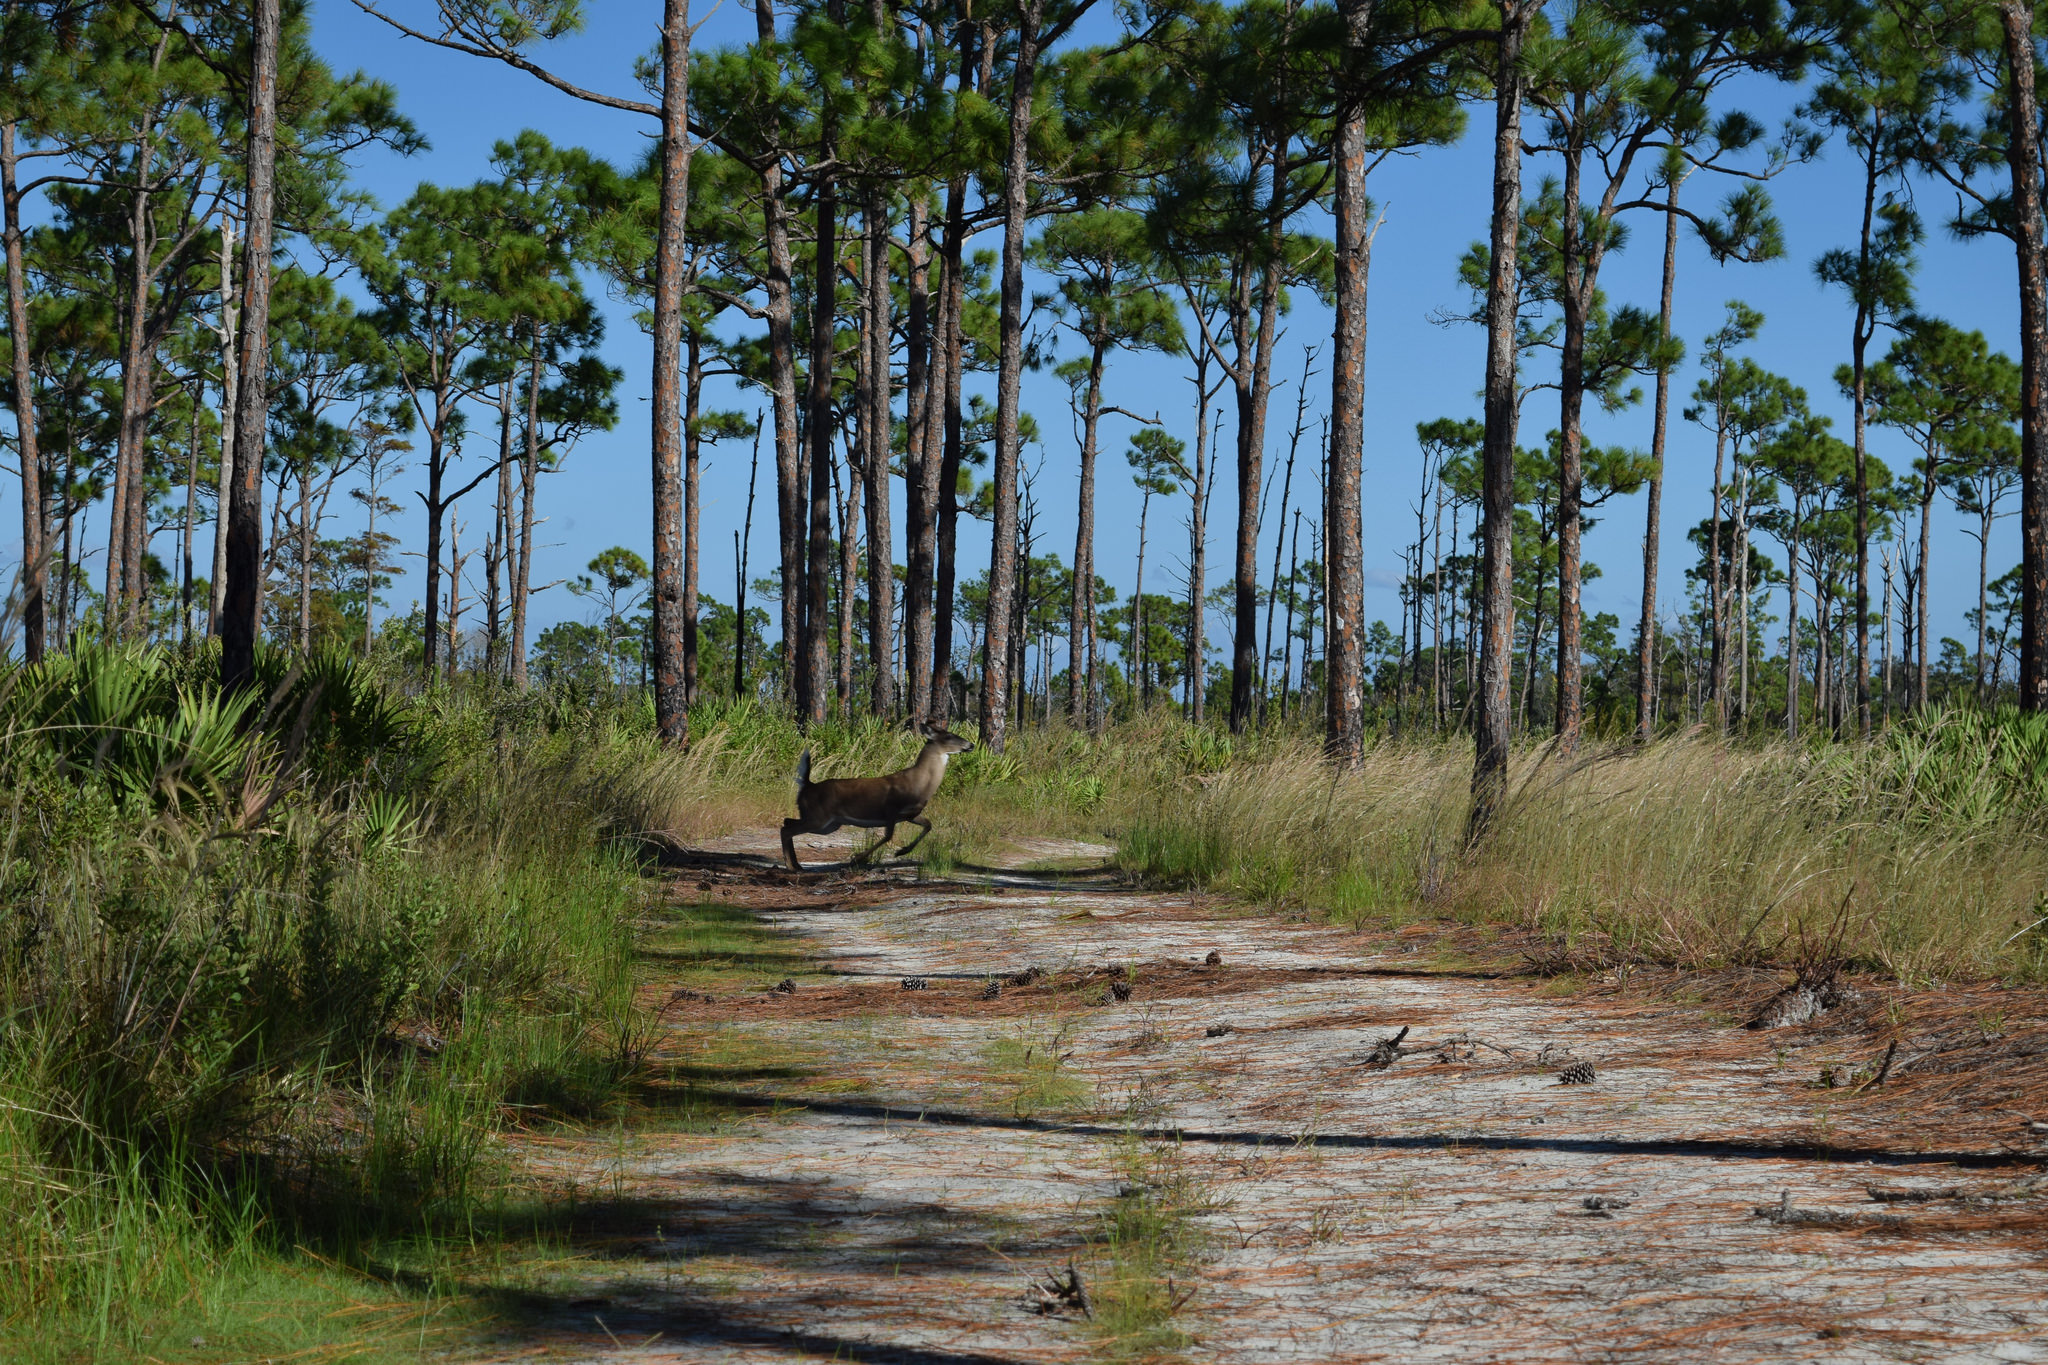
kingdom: Animalia
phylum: Chordata
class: Mammalia
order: Artiodactyla
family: Cervidae
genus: Odocoileus
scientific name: Odocoileus virginianus
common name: White-tailed deer
